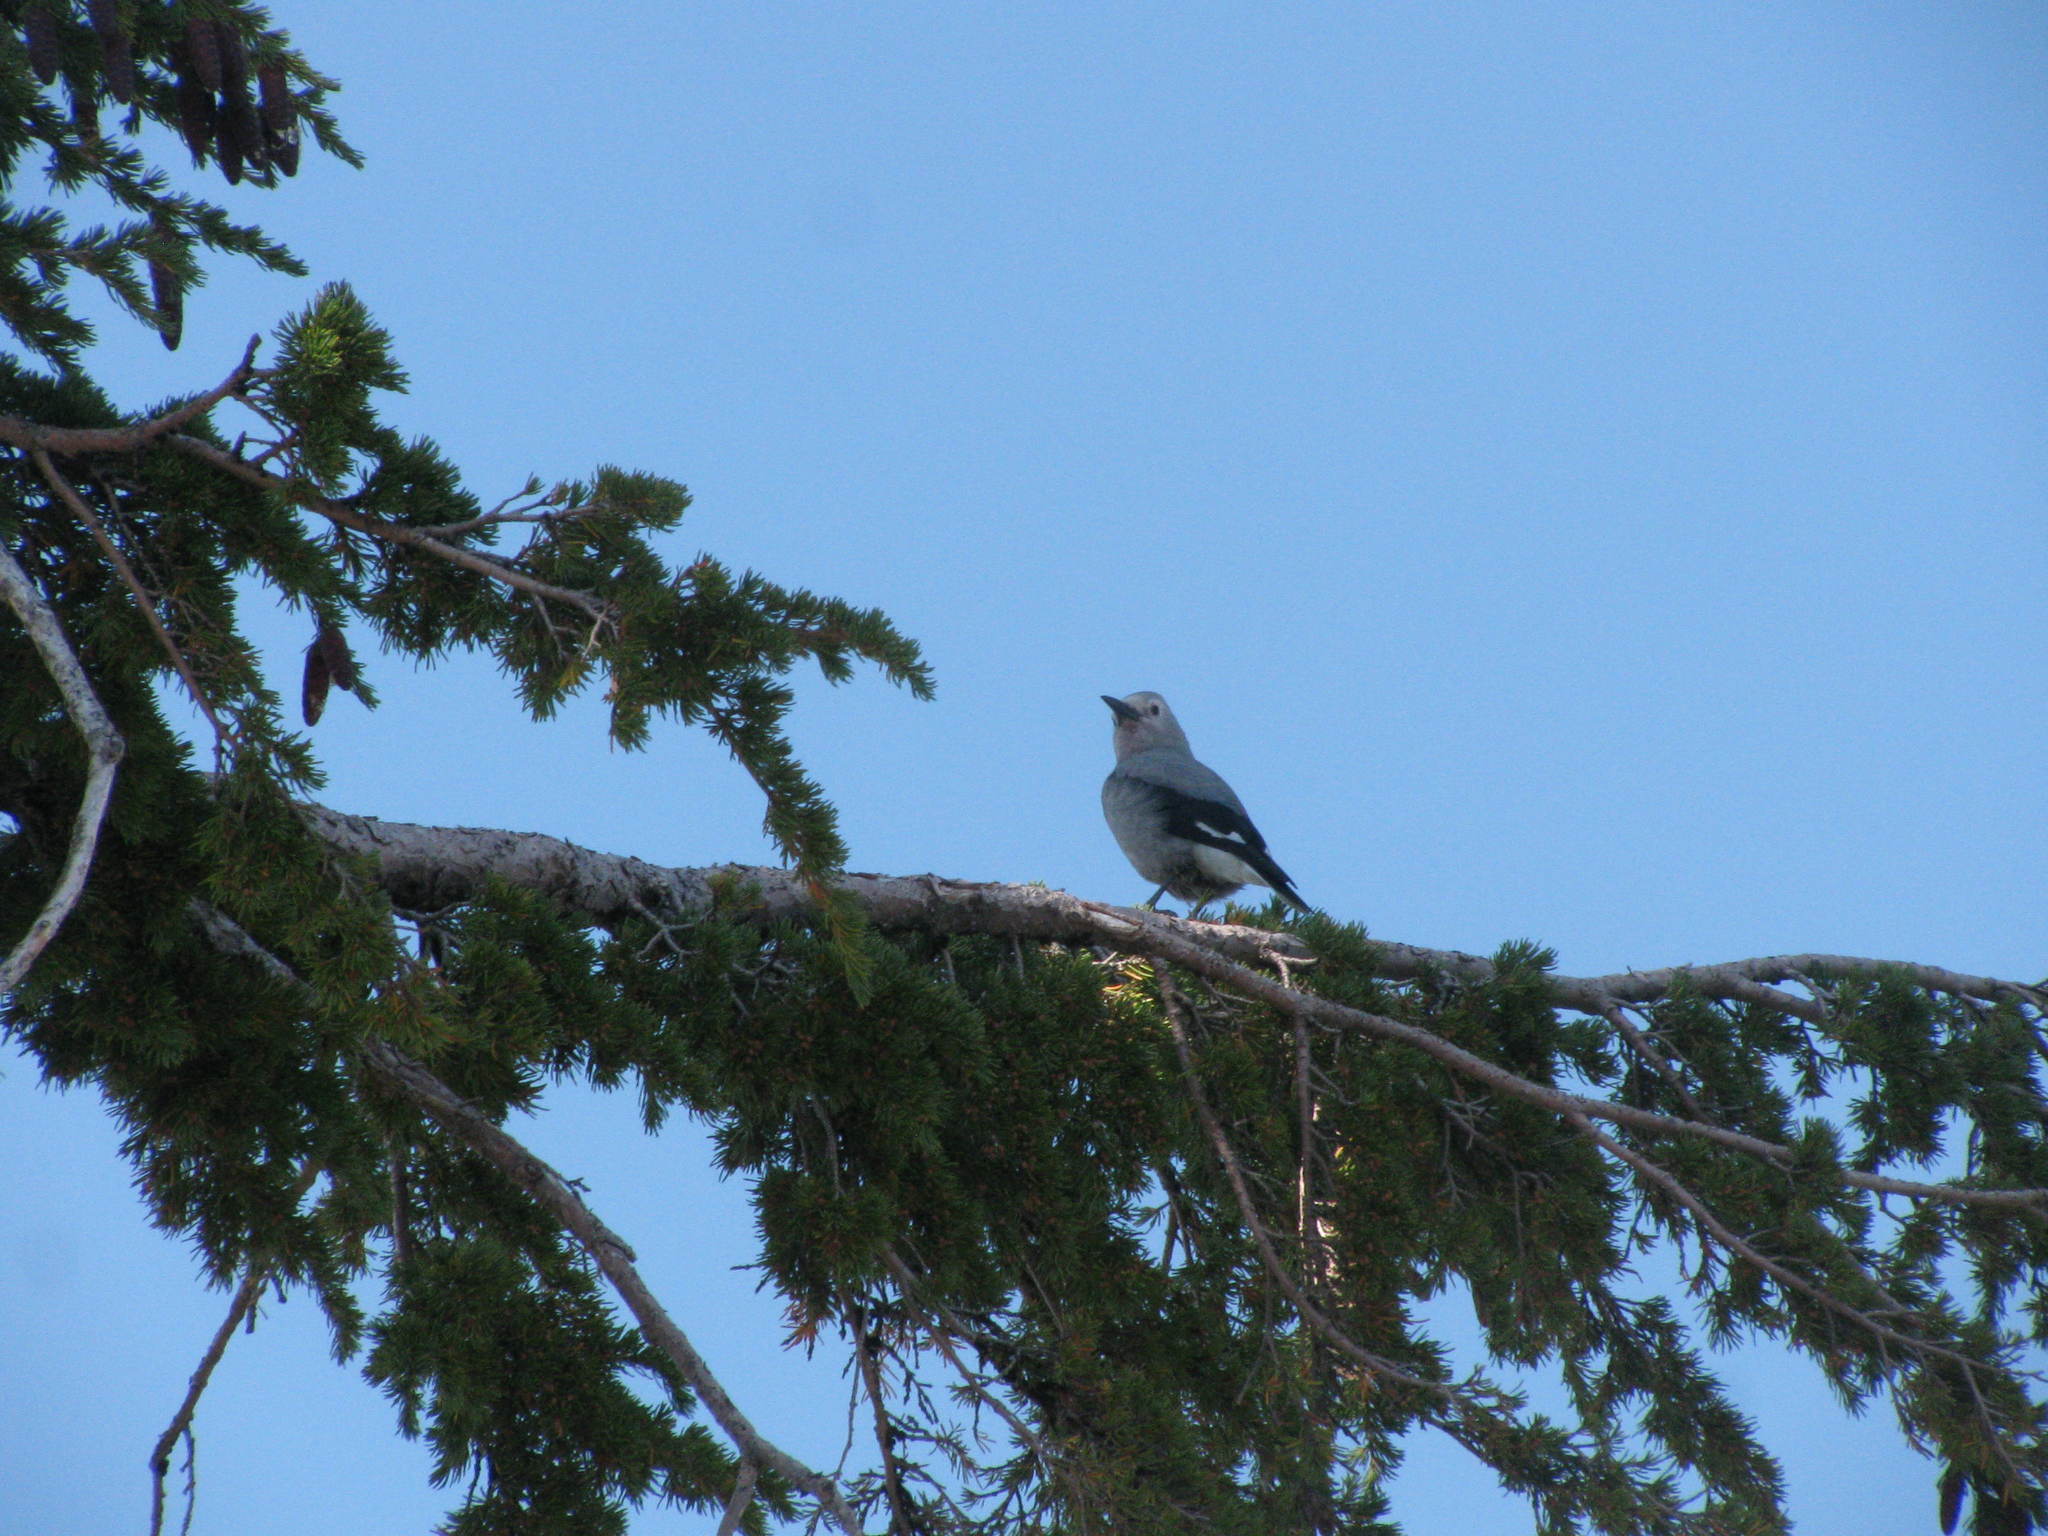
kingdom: Animalia
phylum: Chordata
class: Aves
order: Passeriformes
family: Corvidae
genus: Nucifraga
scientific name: Nucifraga columbiana
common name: Clark's nutcracker
